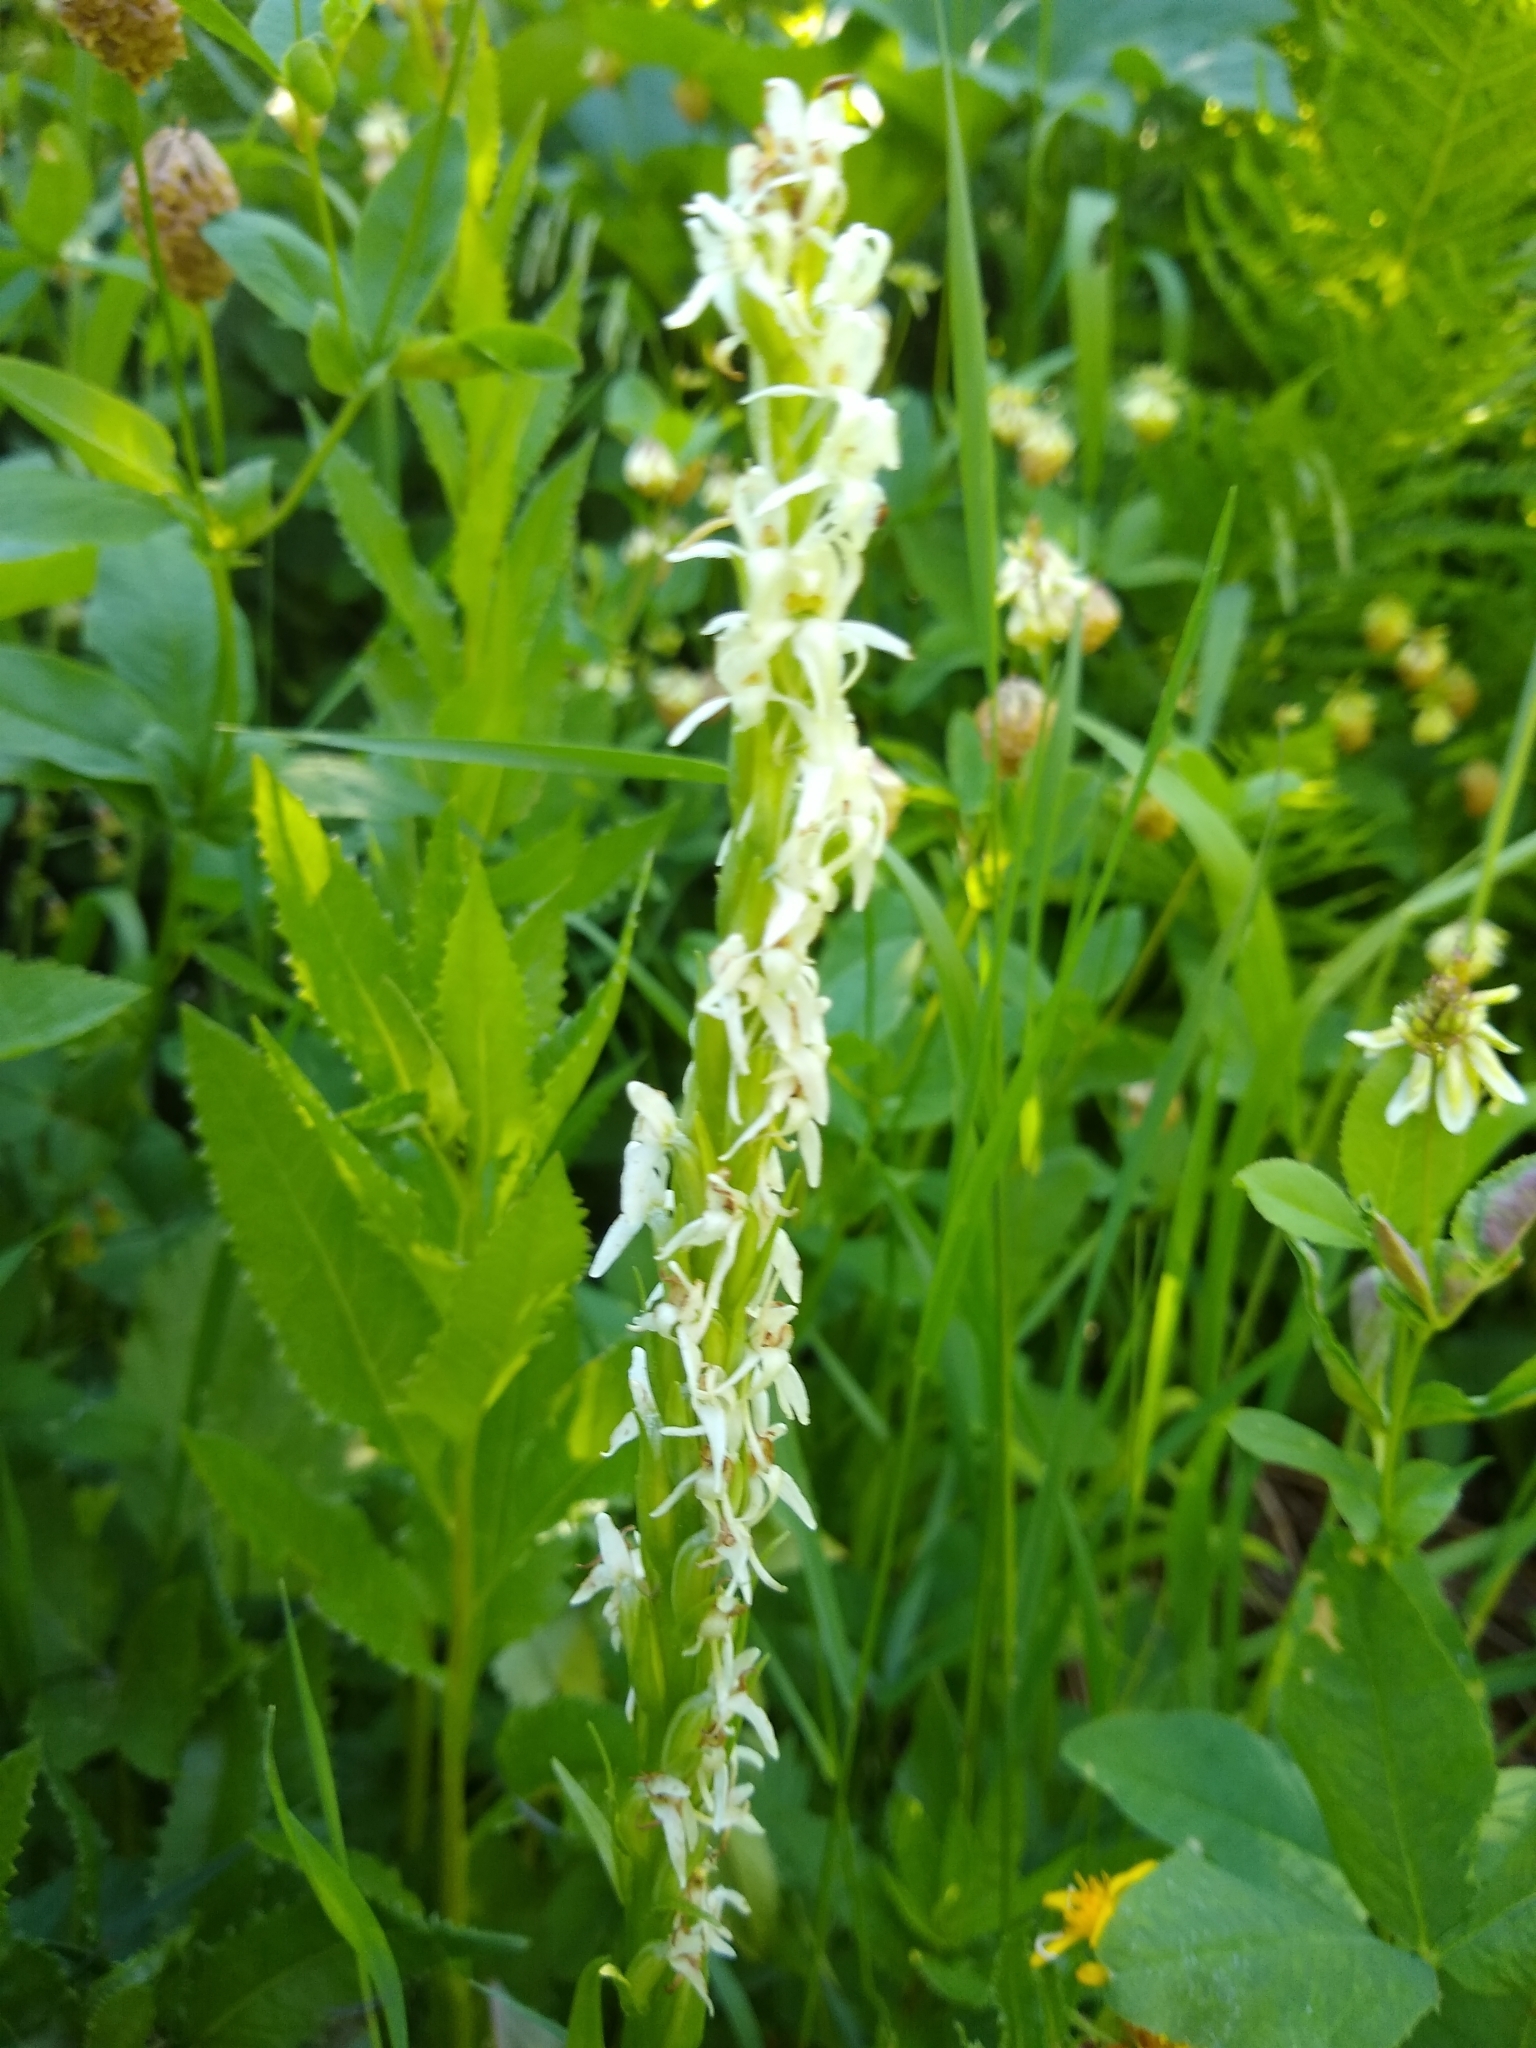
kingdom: Plantae
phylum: Tracheophyta
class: Liliopsida
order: Asparagales
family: Orchidaceae
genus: Platanthera
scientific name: Platanthera dilatata
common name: Bog candles
